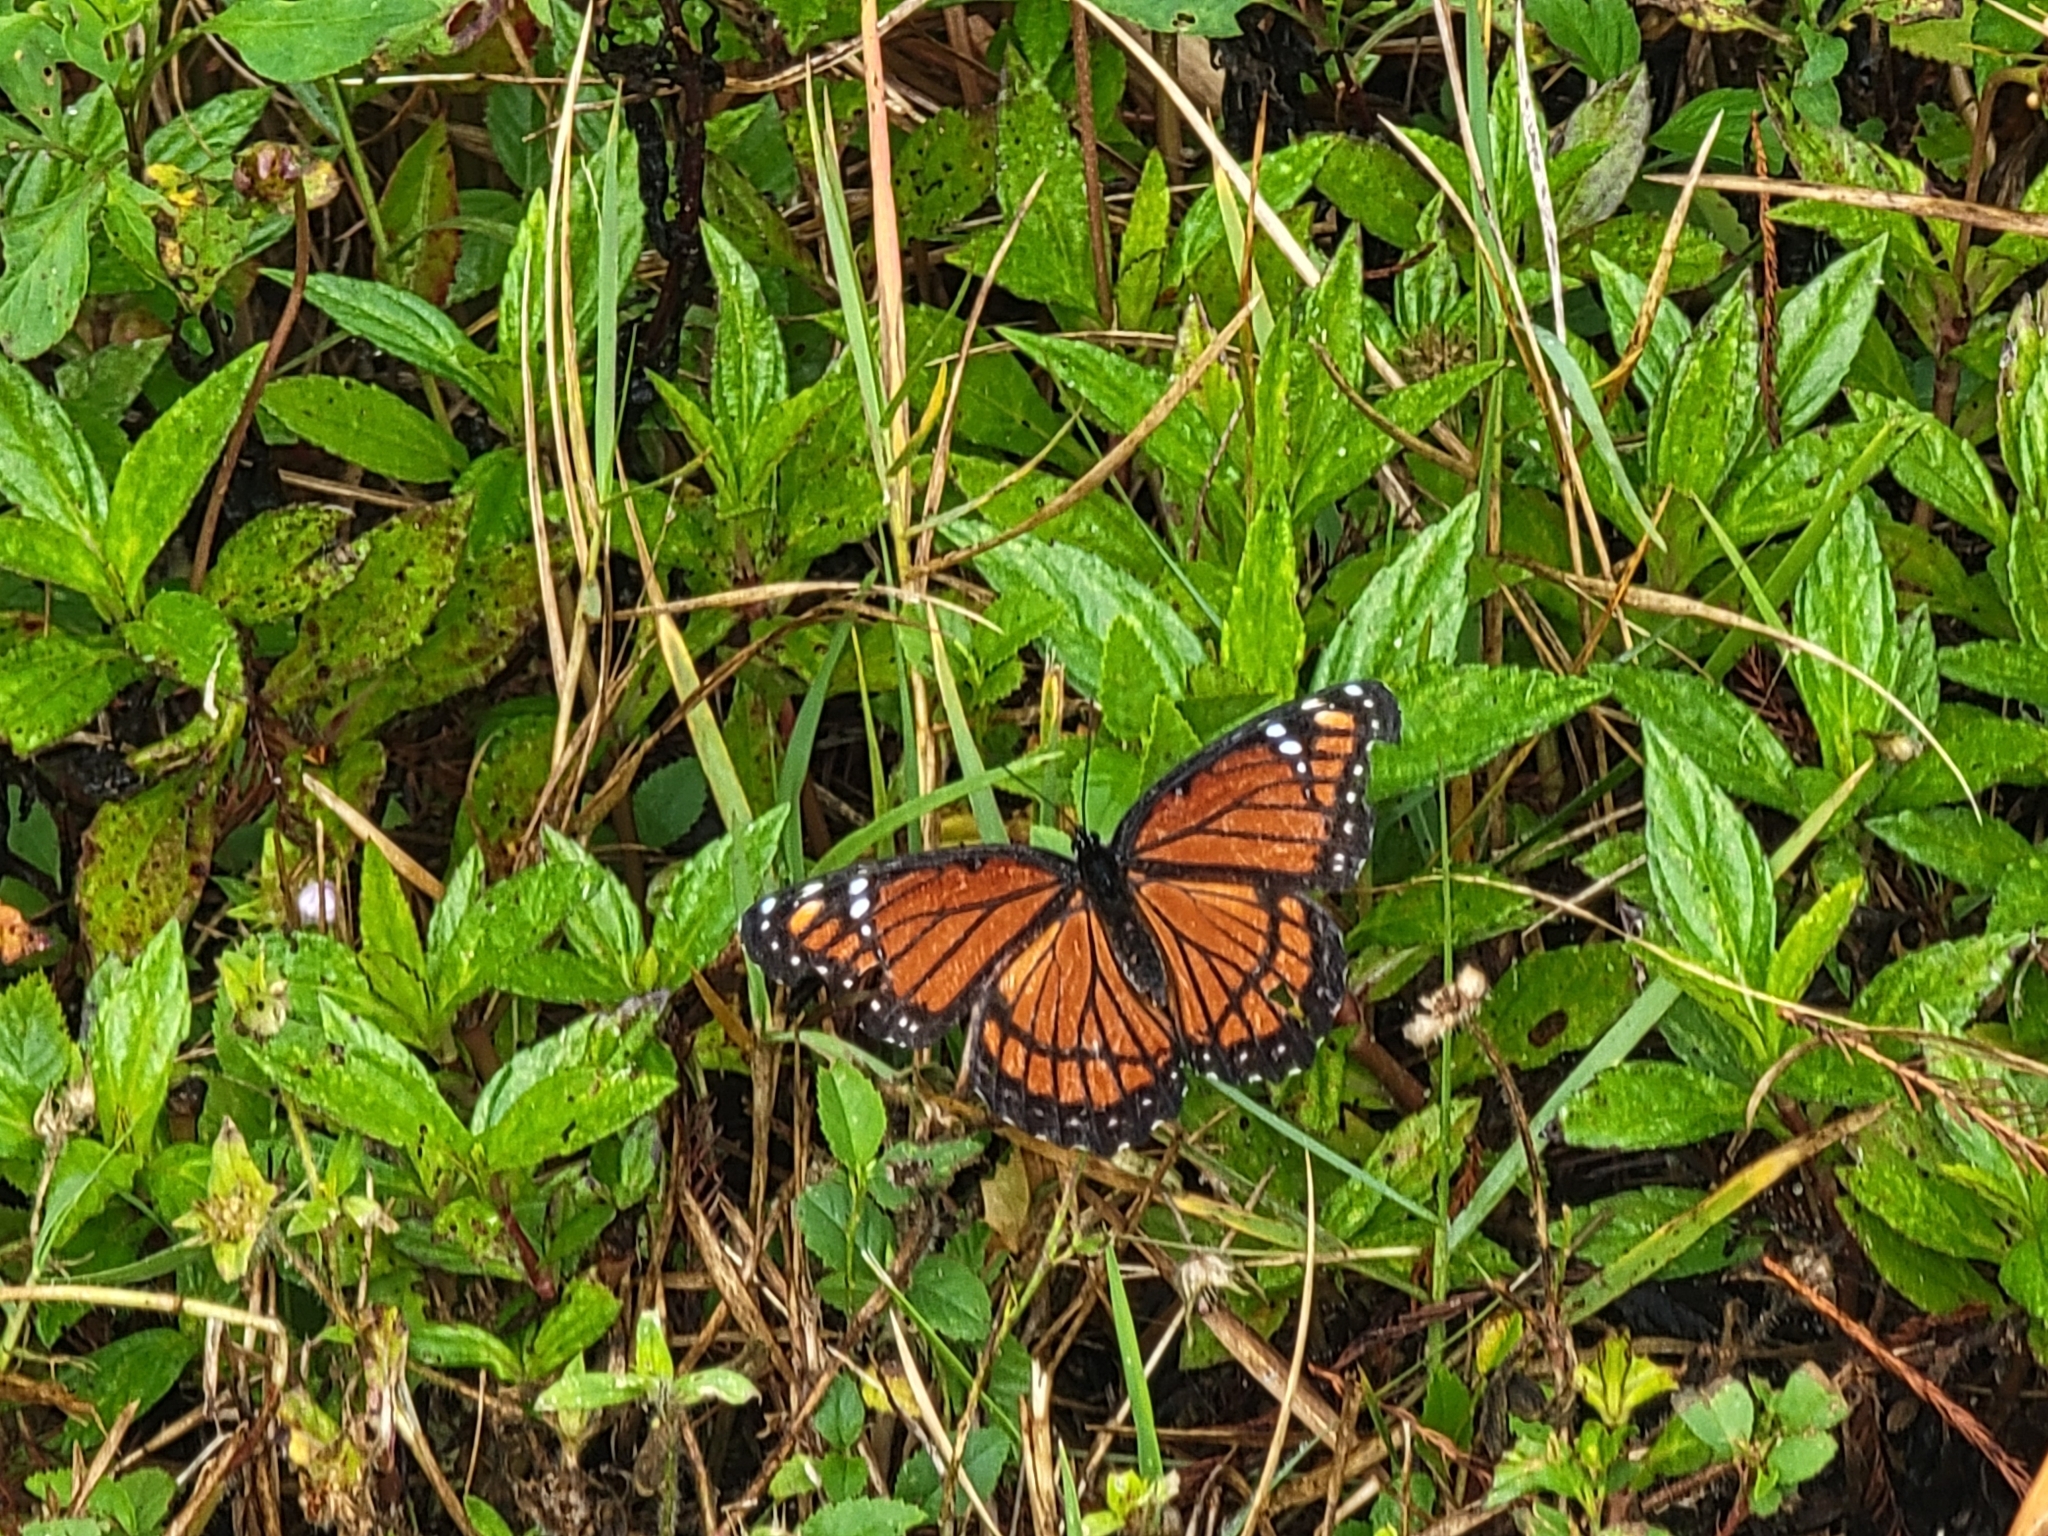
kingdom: Animalia
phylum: Arthropoda
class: Insecta
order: Lepidoptera
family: Nymphalidae
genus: Limenitis
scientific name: Limenitis archippus
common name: Viceroy
